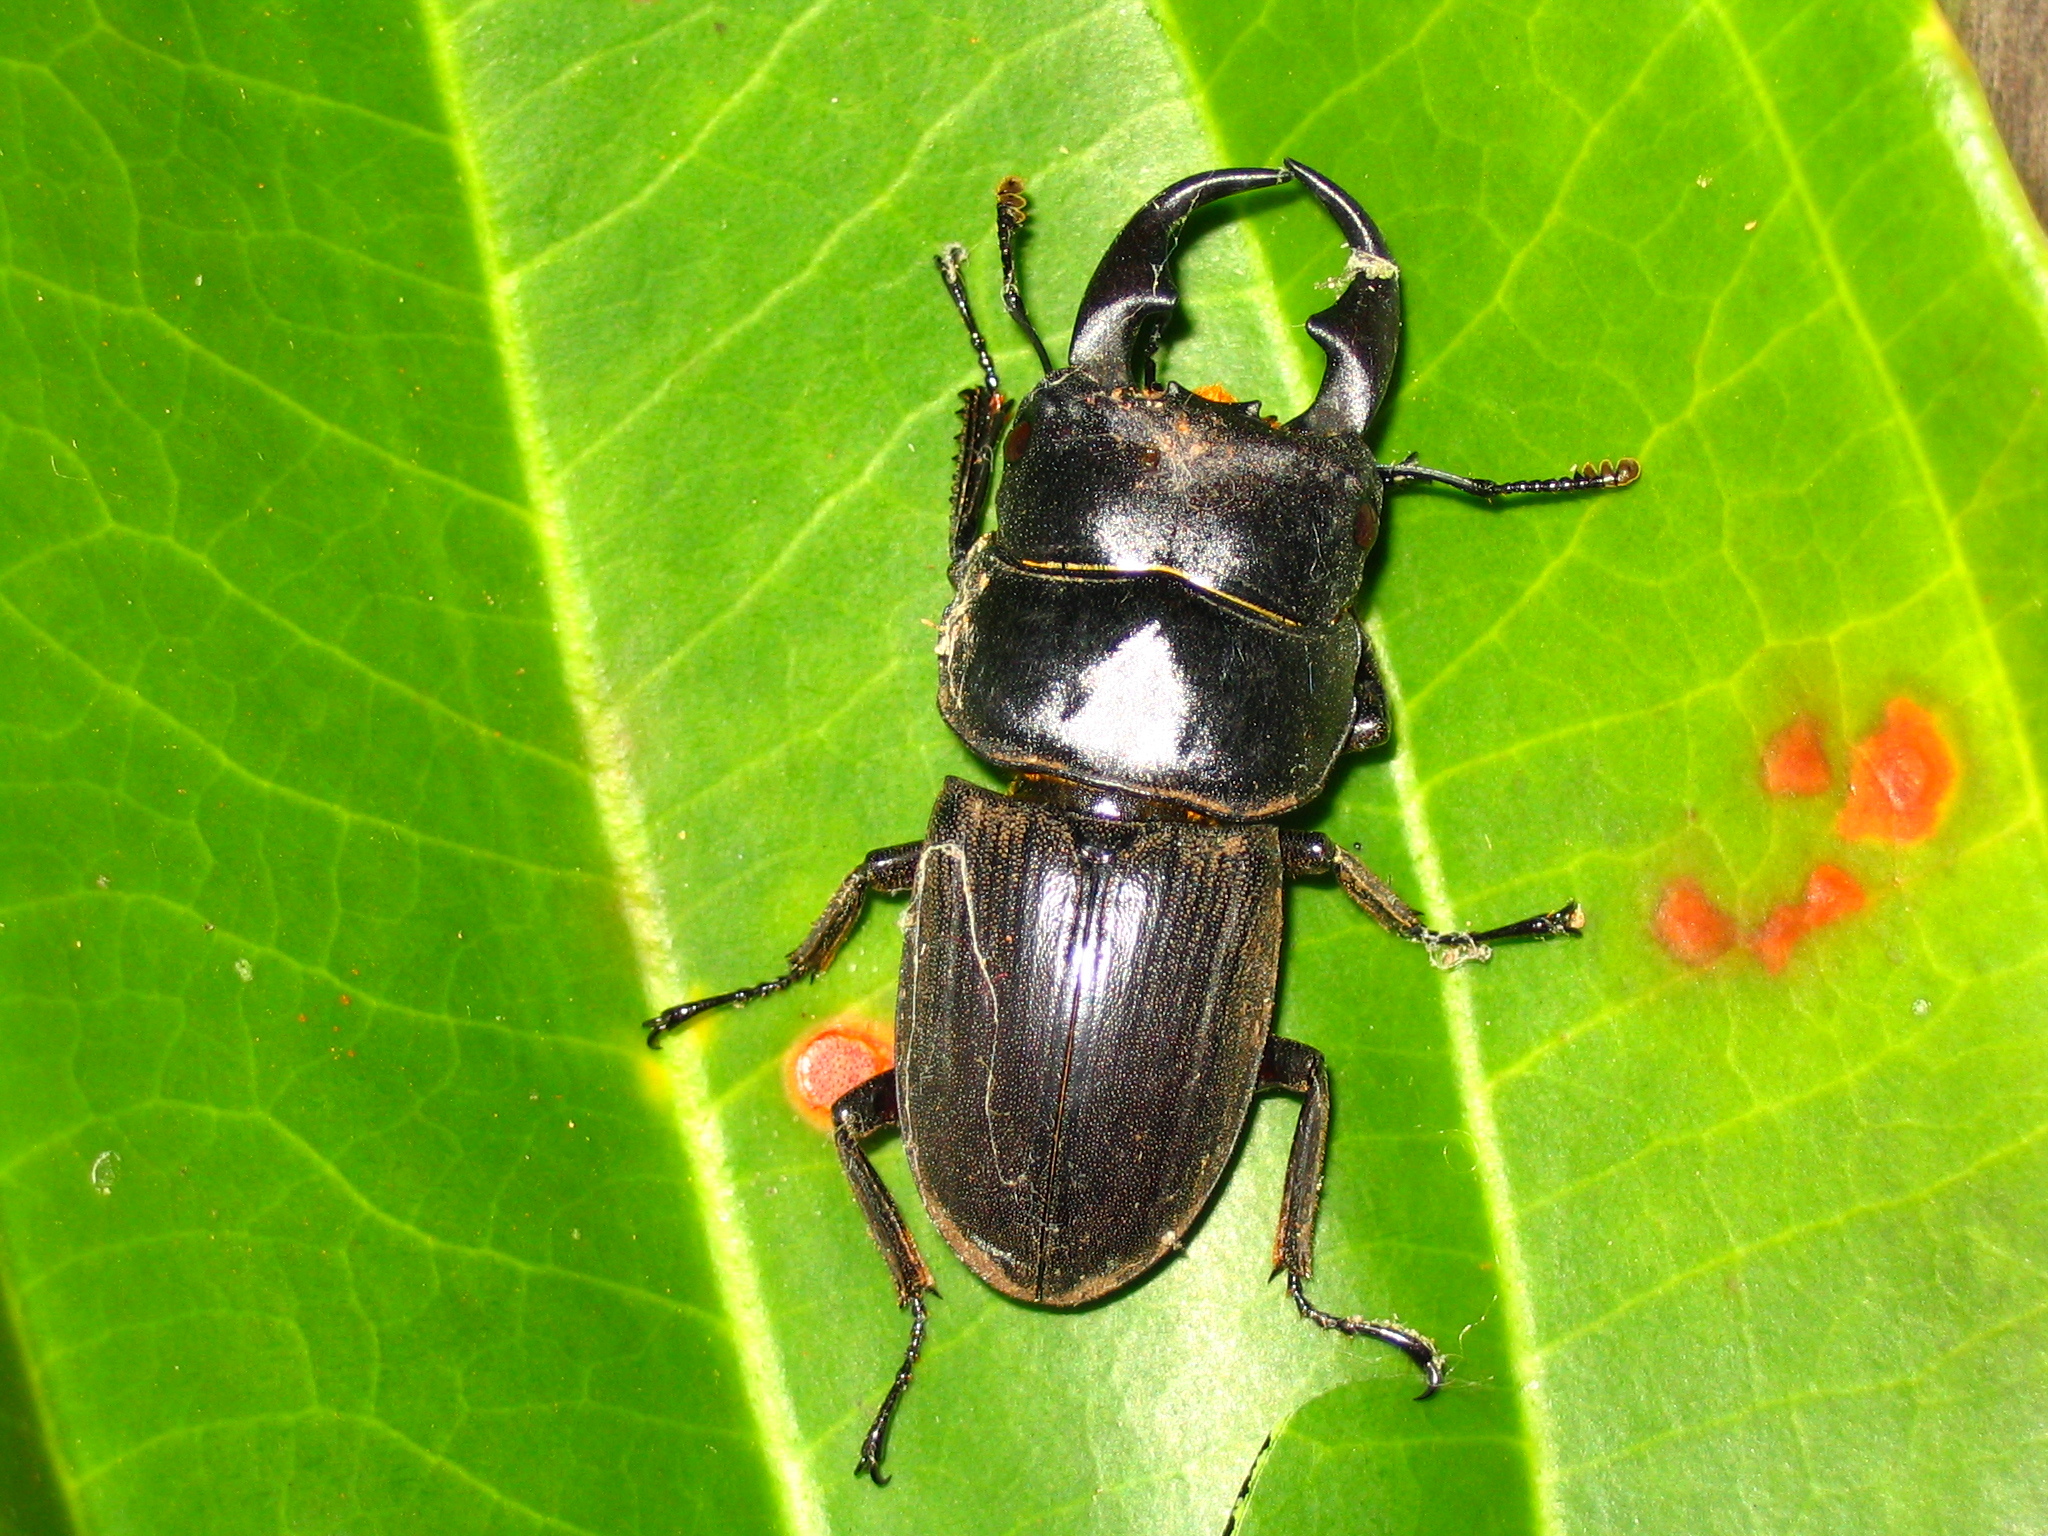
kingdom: Animalia
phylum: Arthropoda
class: Insecta
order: Coleoptera
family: Lucanidae
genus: Dorcus
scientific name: Dorcus ritsemae
